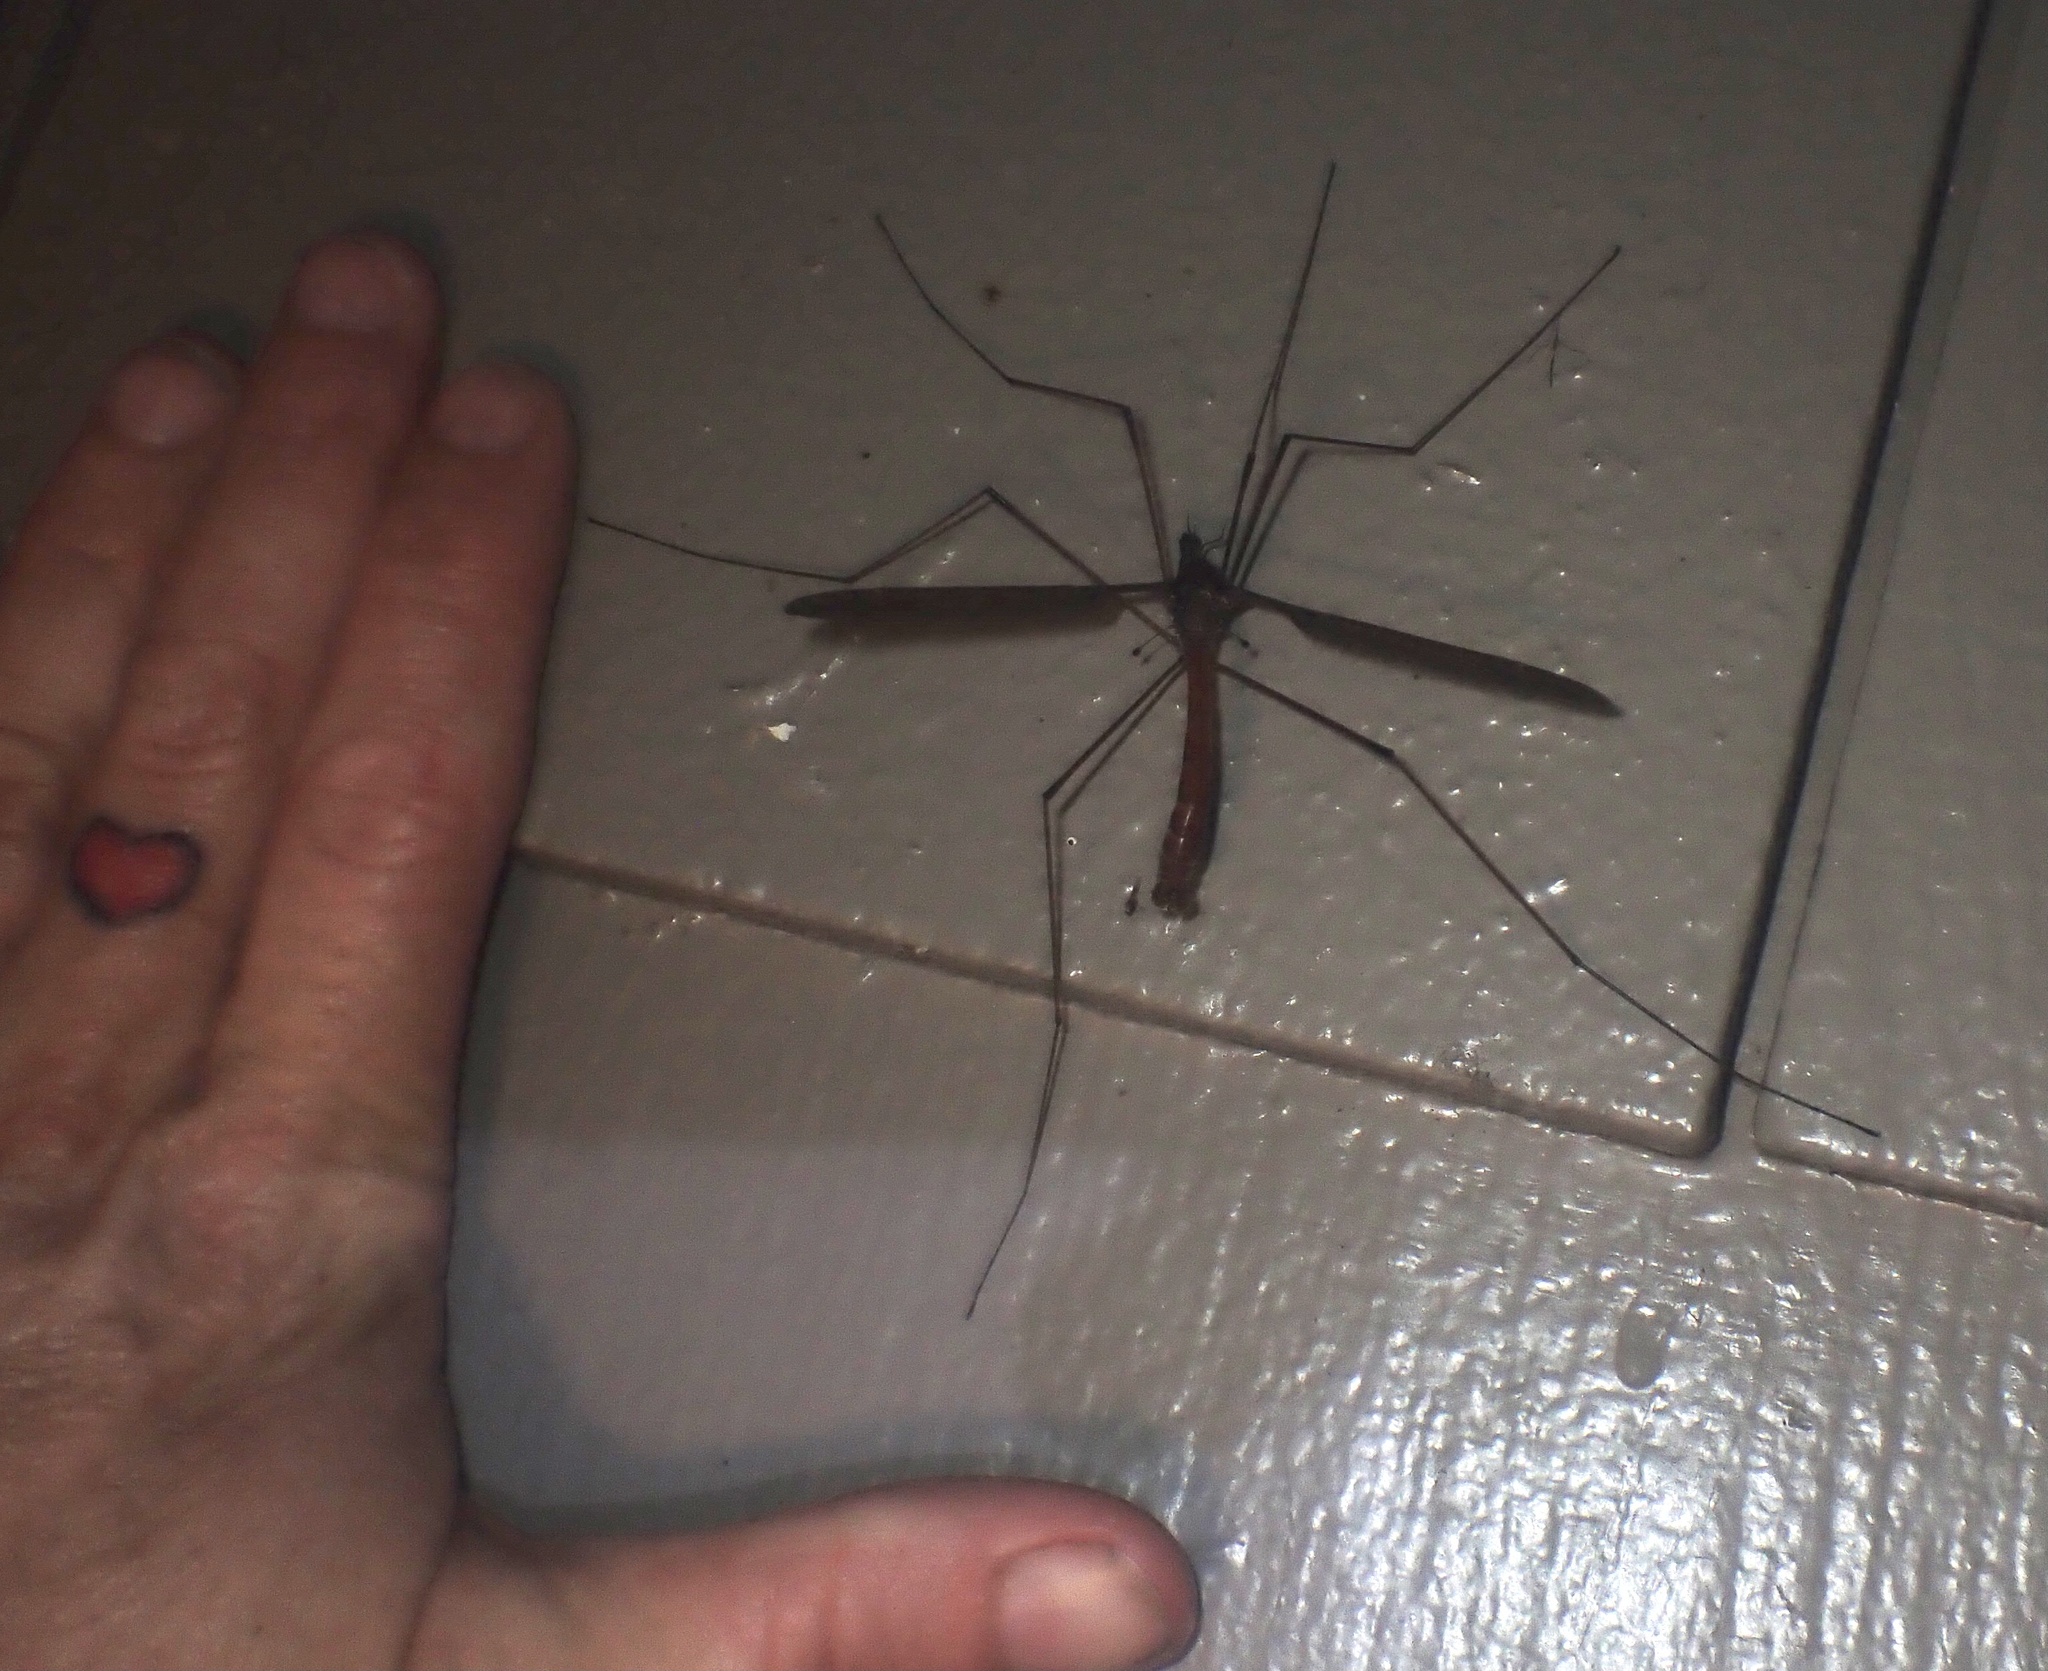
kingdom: Animalia
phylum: Arthropoda
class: Insecta
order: Diptera
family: Tipulidae
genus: Holorusia
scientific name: Holorusia hespera
